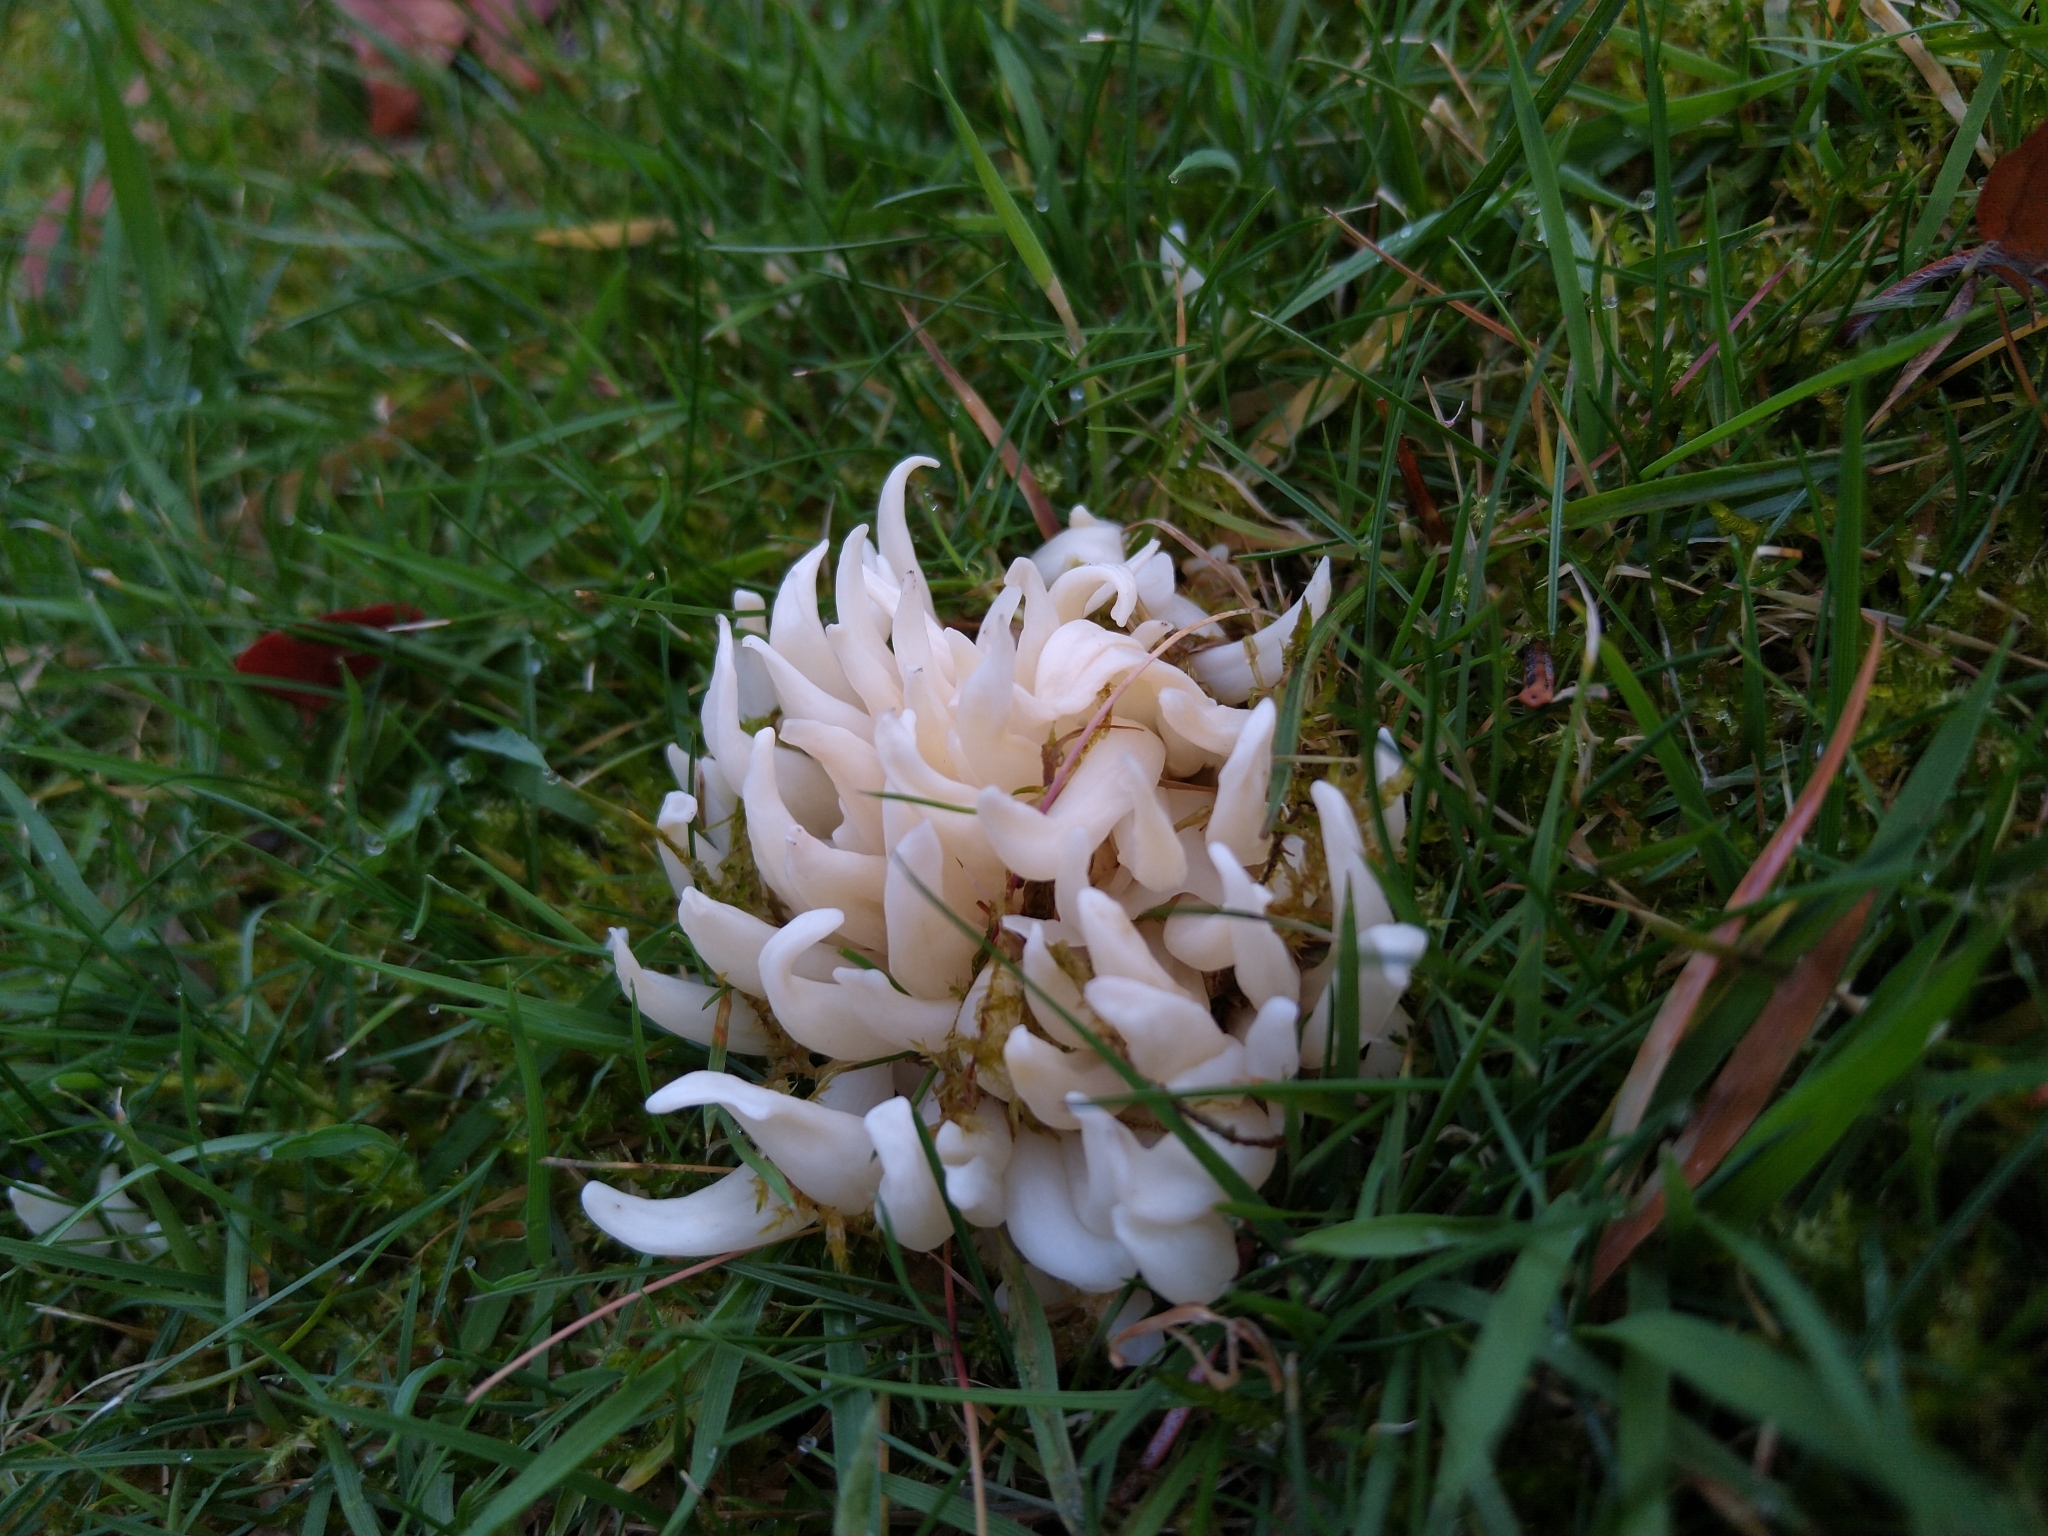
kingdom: Fungi
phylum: Basidiomycota
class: Agaricomycetes
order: Agaricales
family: Clavariaceae
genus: Clavaria
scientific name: Clavaria fragilis
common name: White spindles
